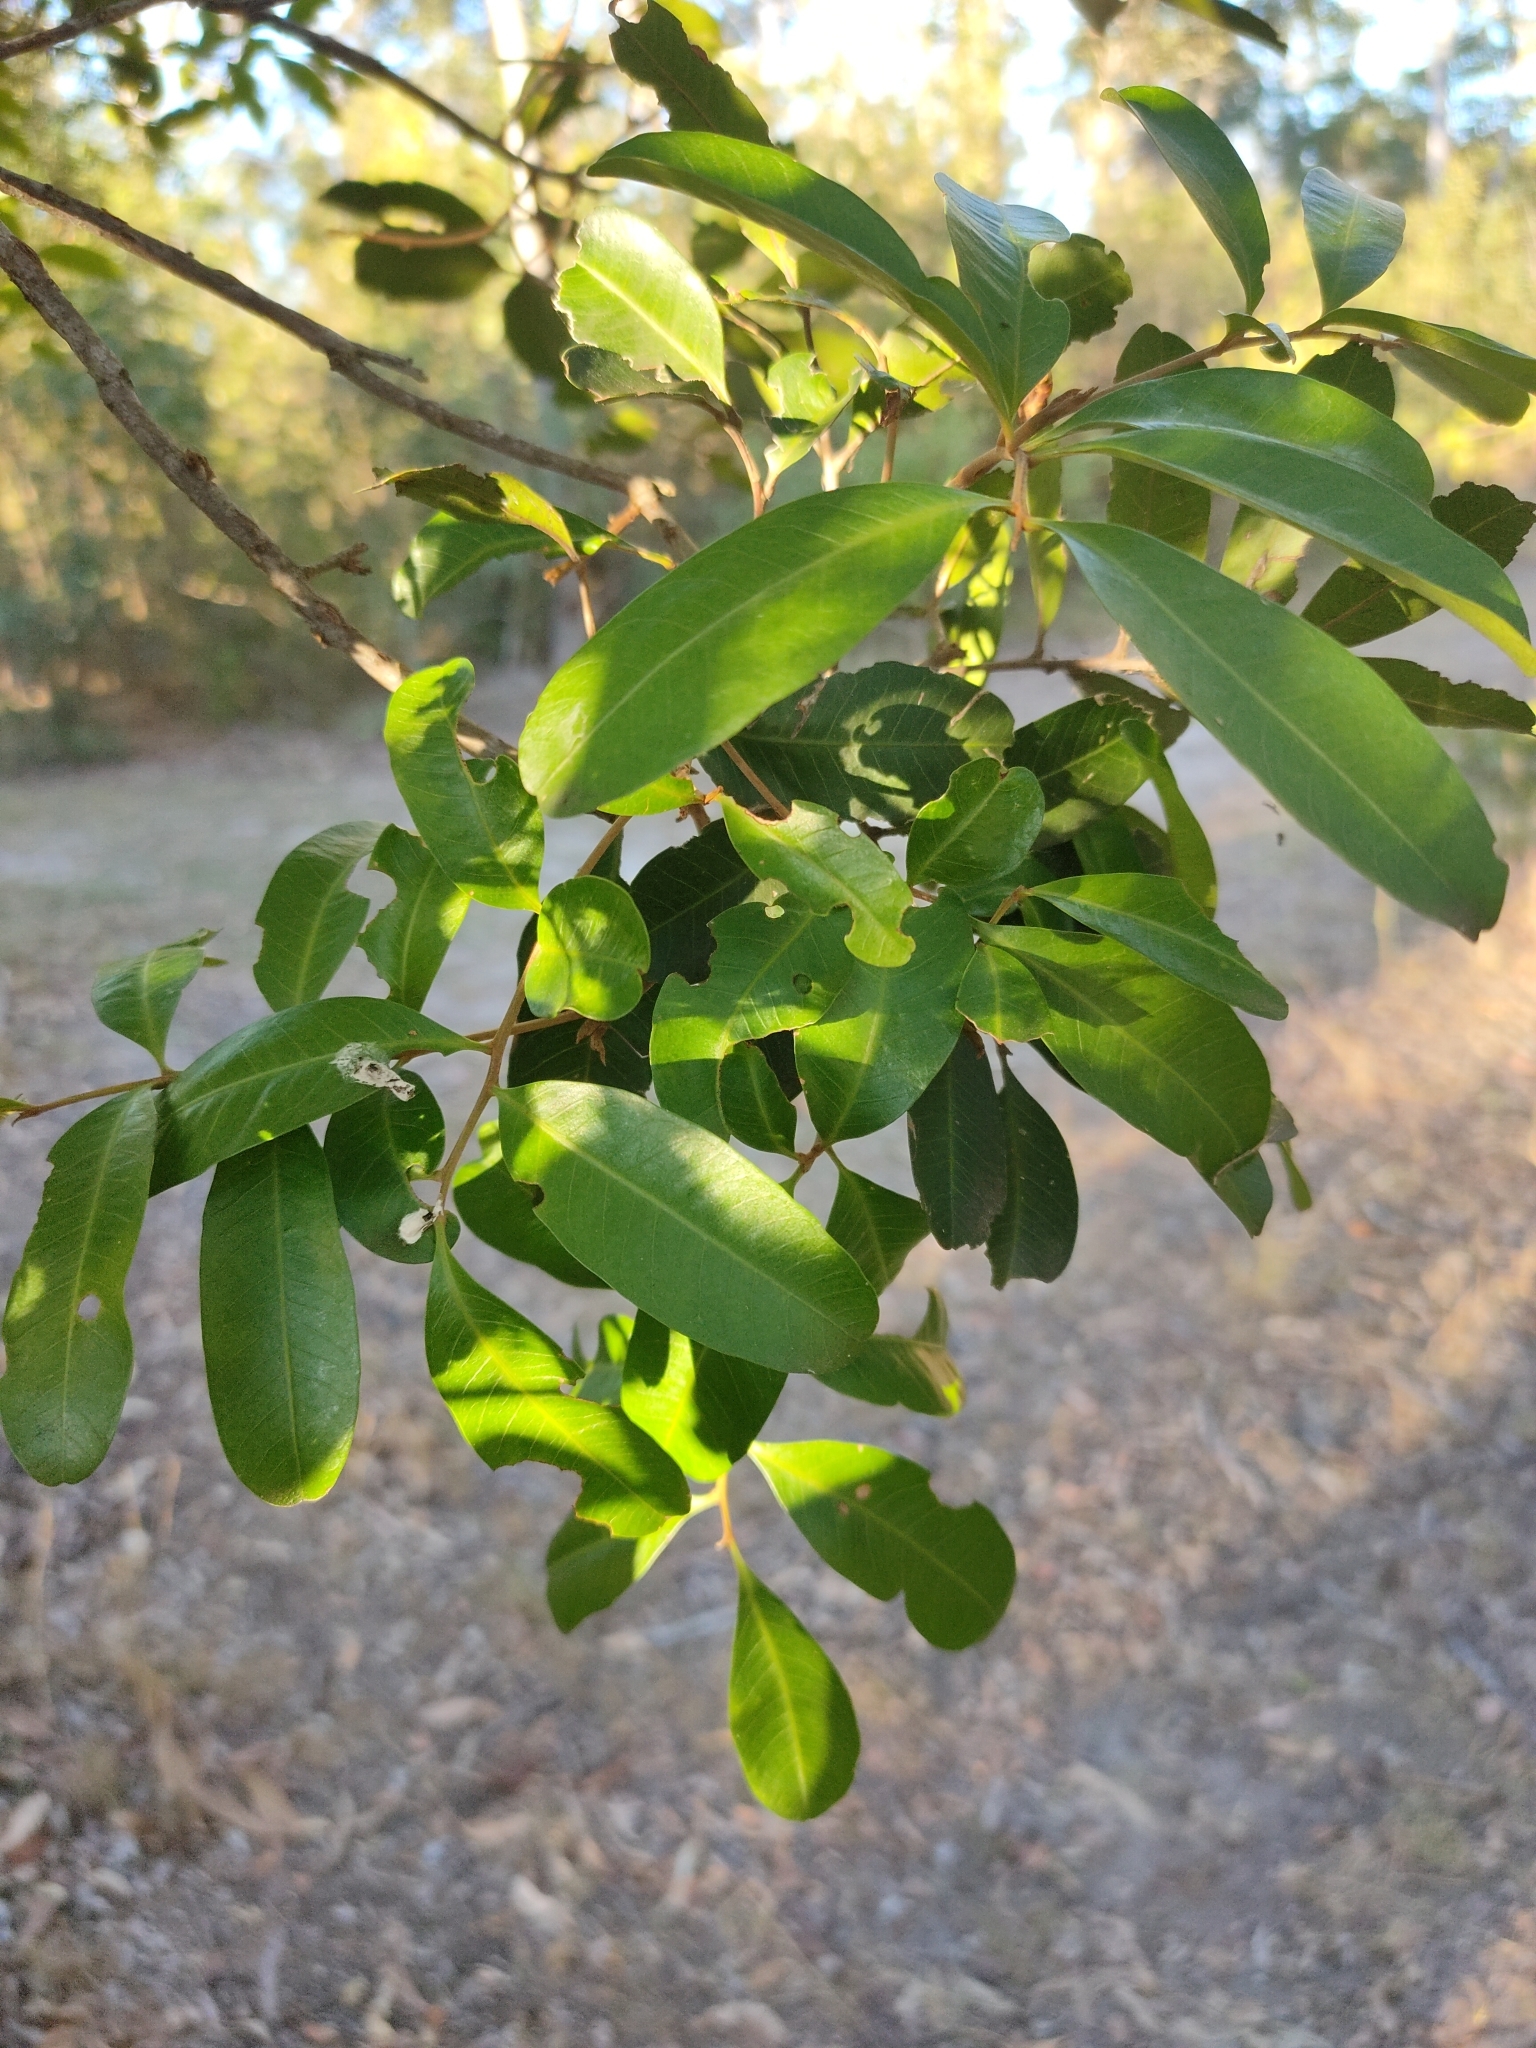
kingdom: Plantae
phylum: Tracheophyta
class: Magnoliopsida
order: Sapindales
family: Sapindaceae
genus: Cupaniopsis
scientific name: Cupaniopsis parvifolia
